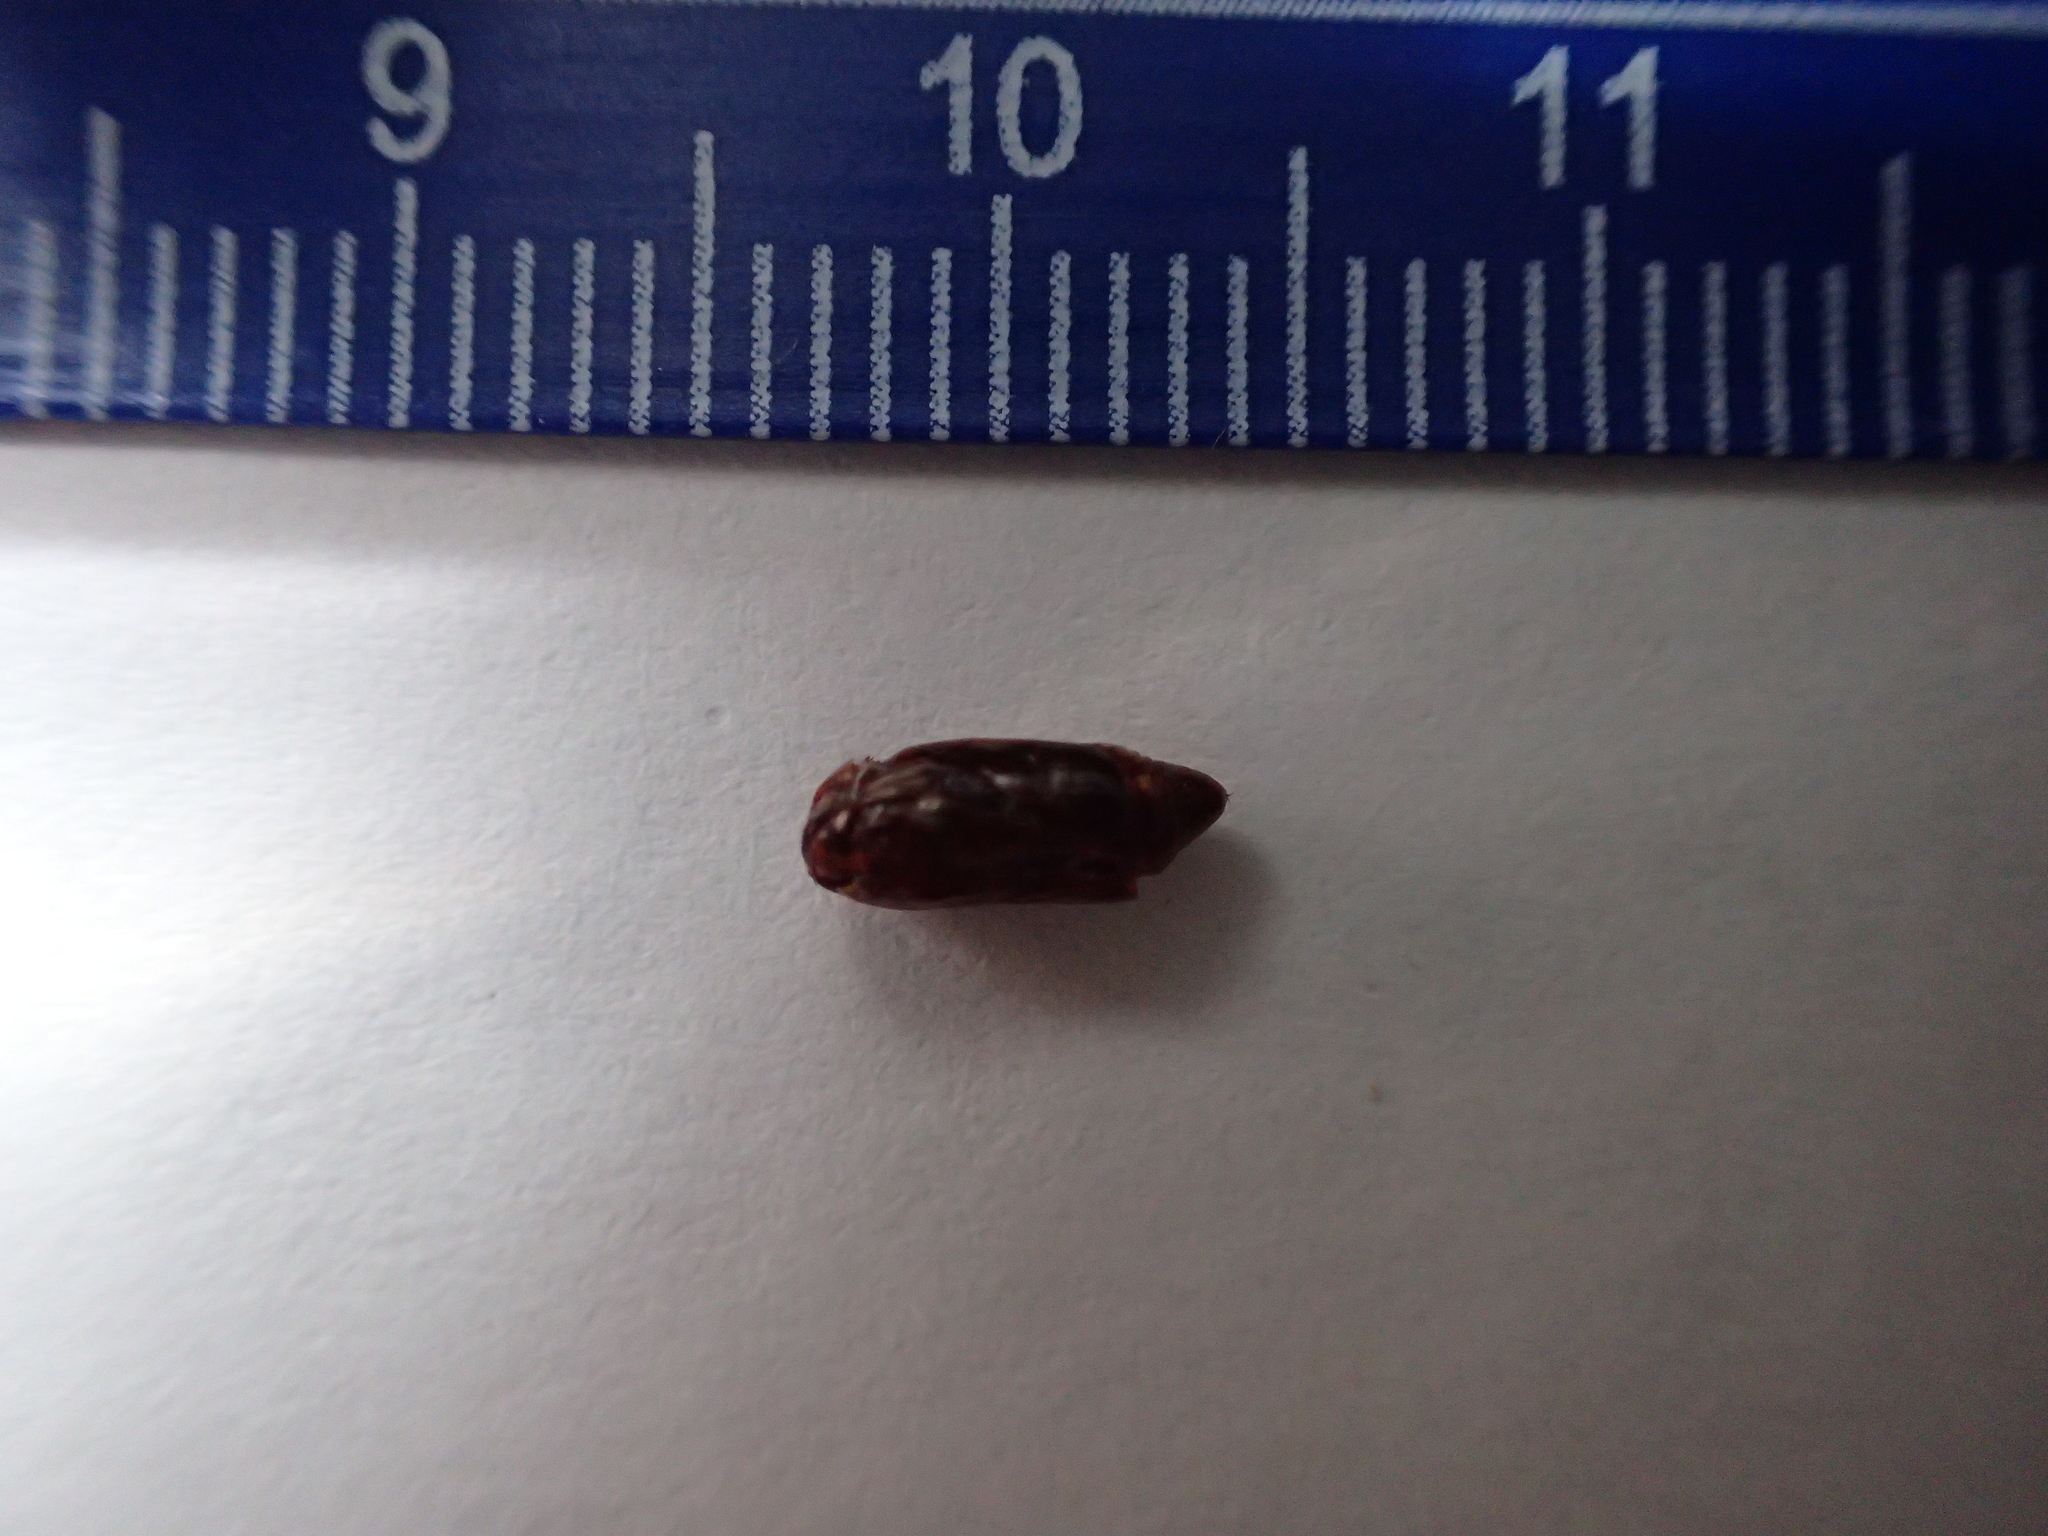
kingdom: Animalia
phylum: Arthropoda
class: Insecta
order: Lepidoptera
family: Noctuidae
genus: Galgula
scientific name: Galgula partita
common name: Wedgeling
